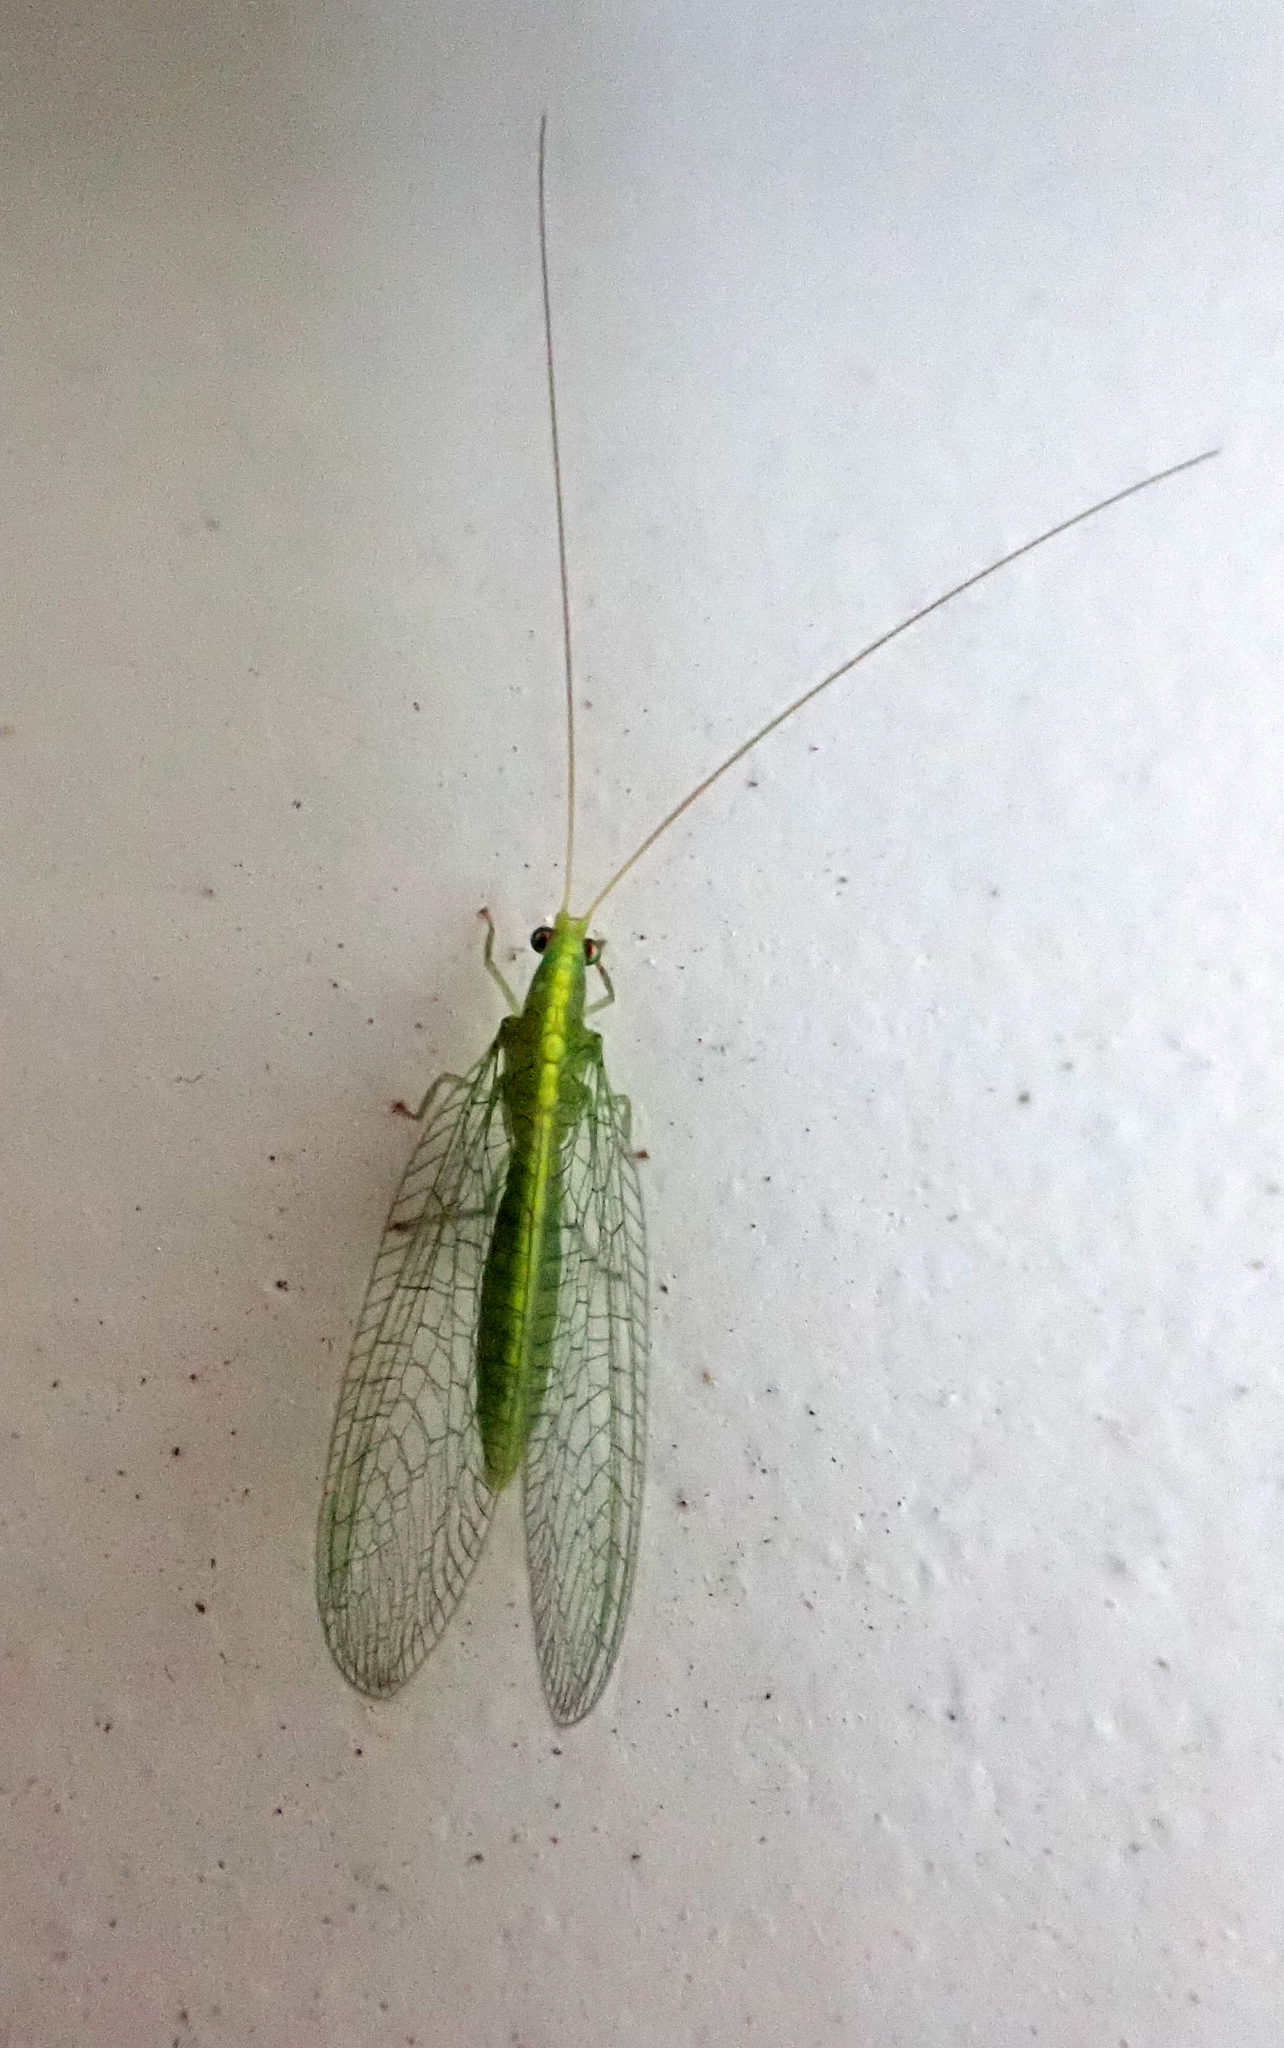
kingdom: Animalia
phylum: Arthropoda
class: Insecta
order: Neuroptera
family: Chrysopidae
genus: Mallada
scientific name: Mallada basalis
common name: Green lacewing
